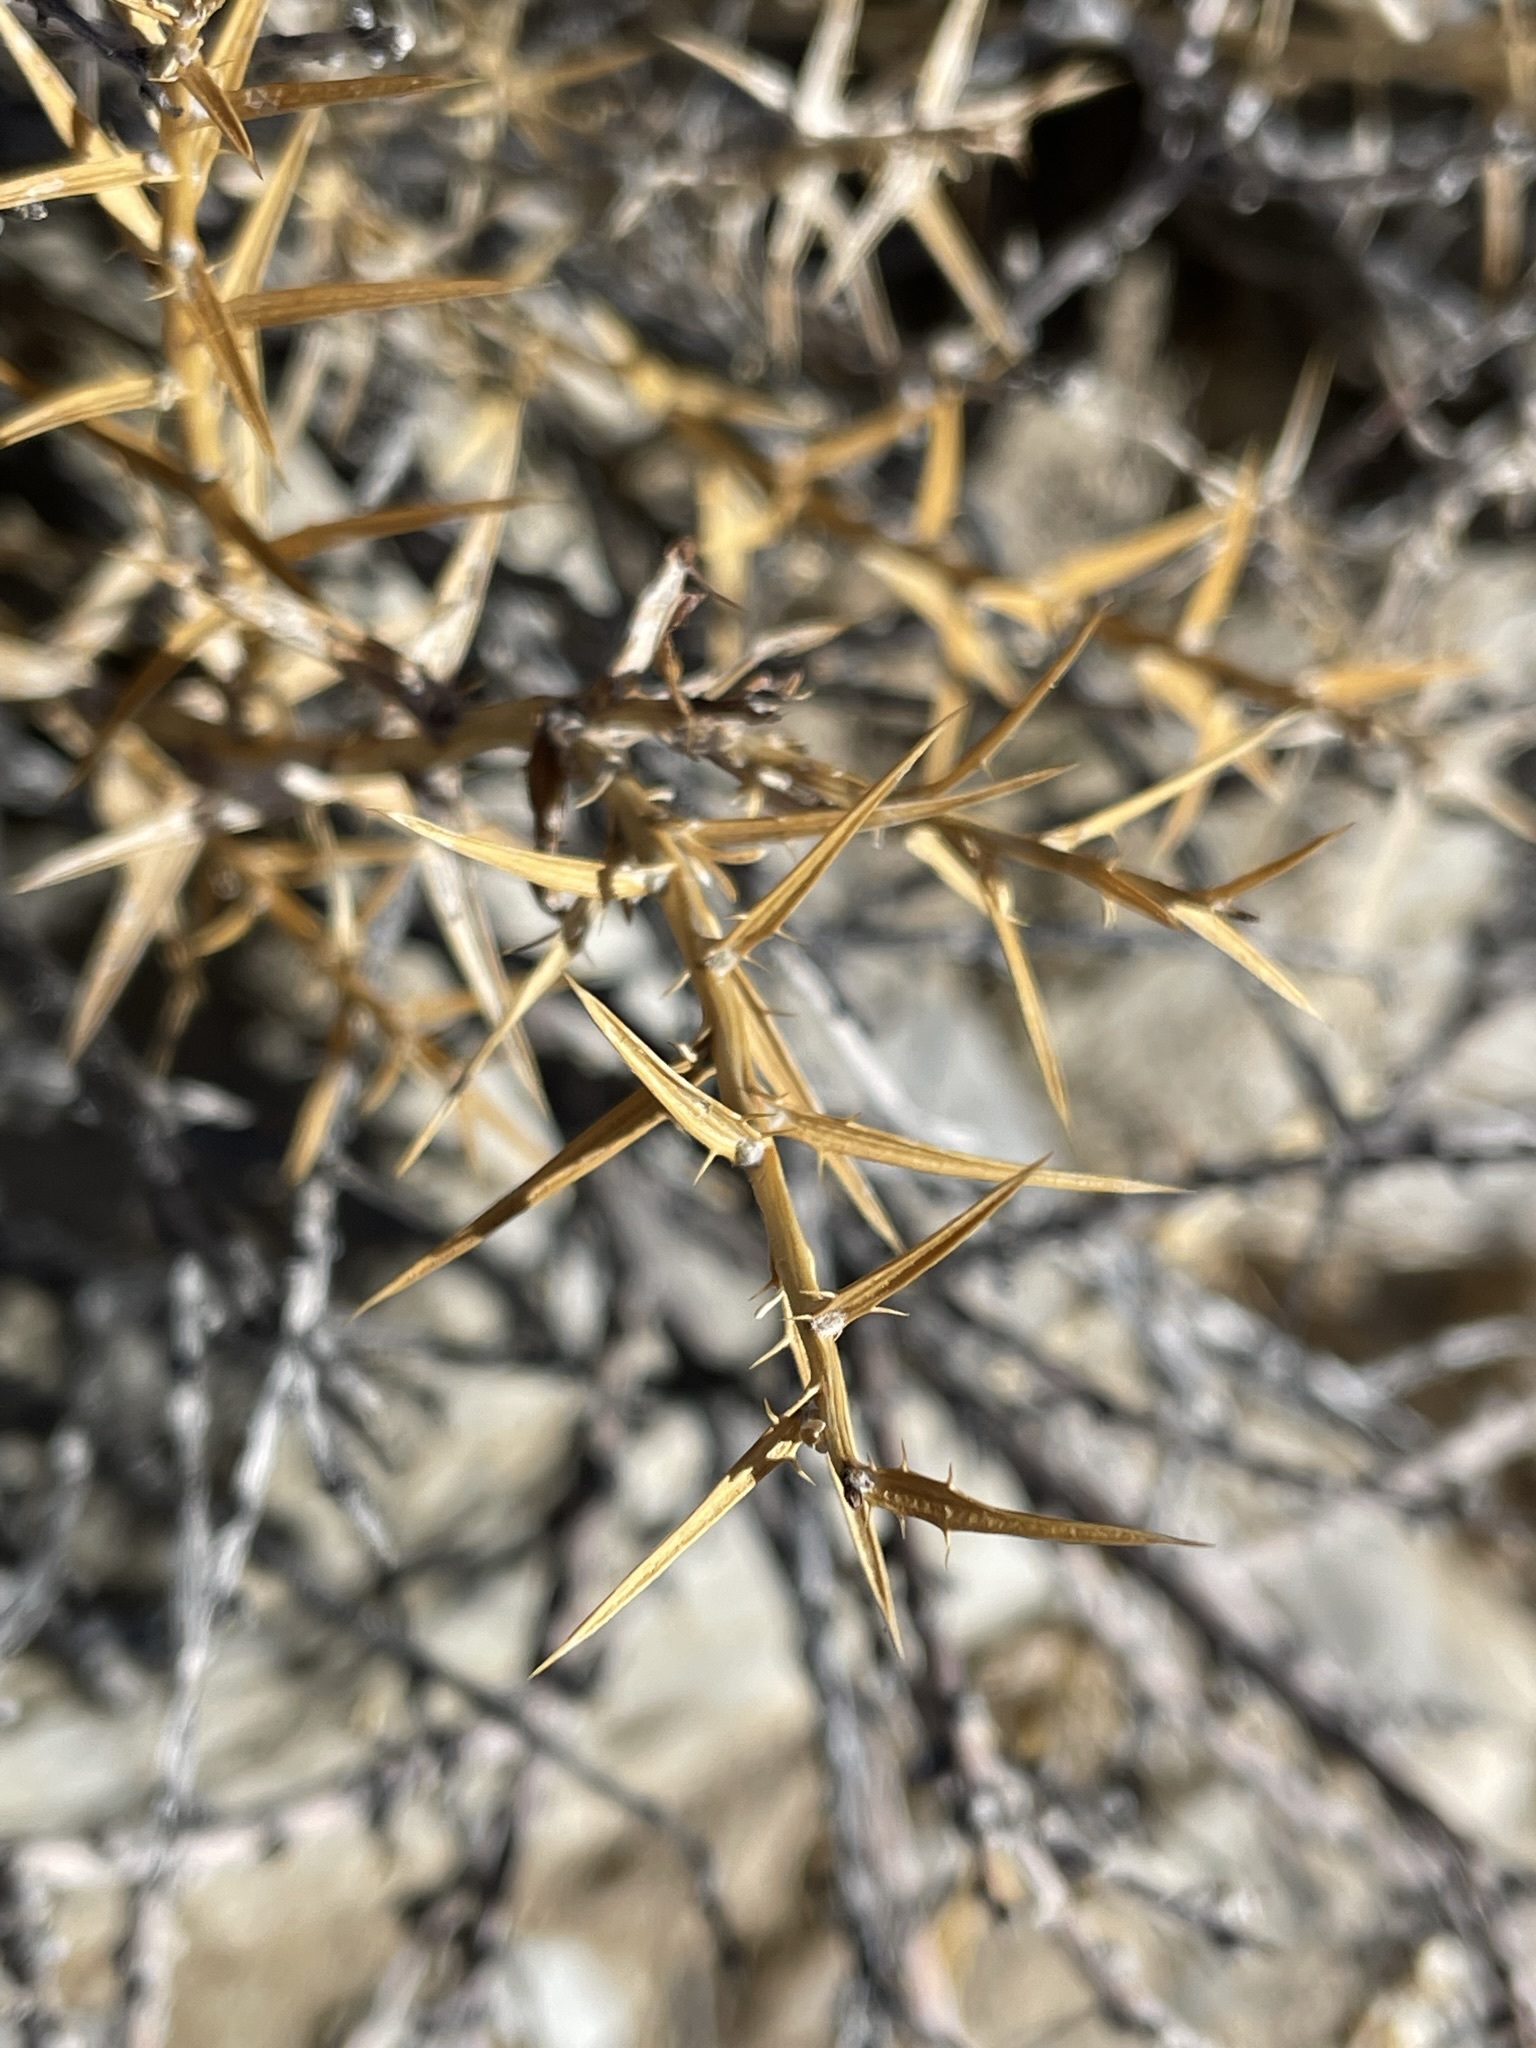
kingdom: Plantae
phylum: Tracheophyta
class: Magnoliopsida
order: Asterales
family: Asteraceae
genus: Hecastocleis
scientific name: Hecastocleis shockleyi
